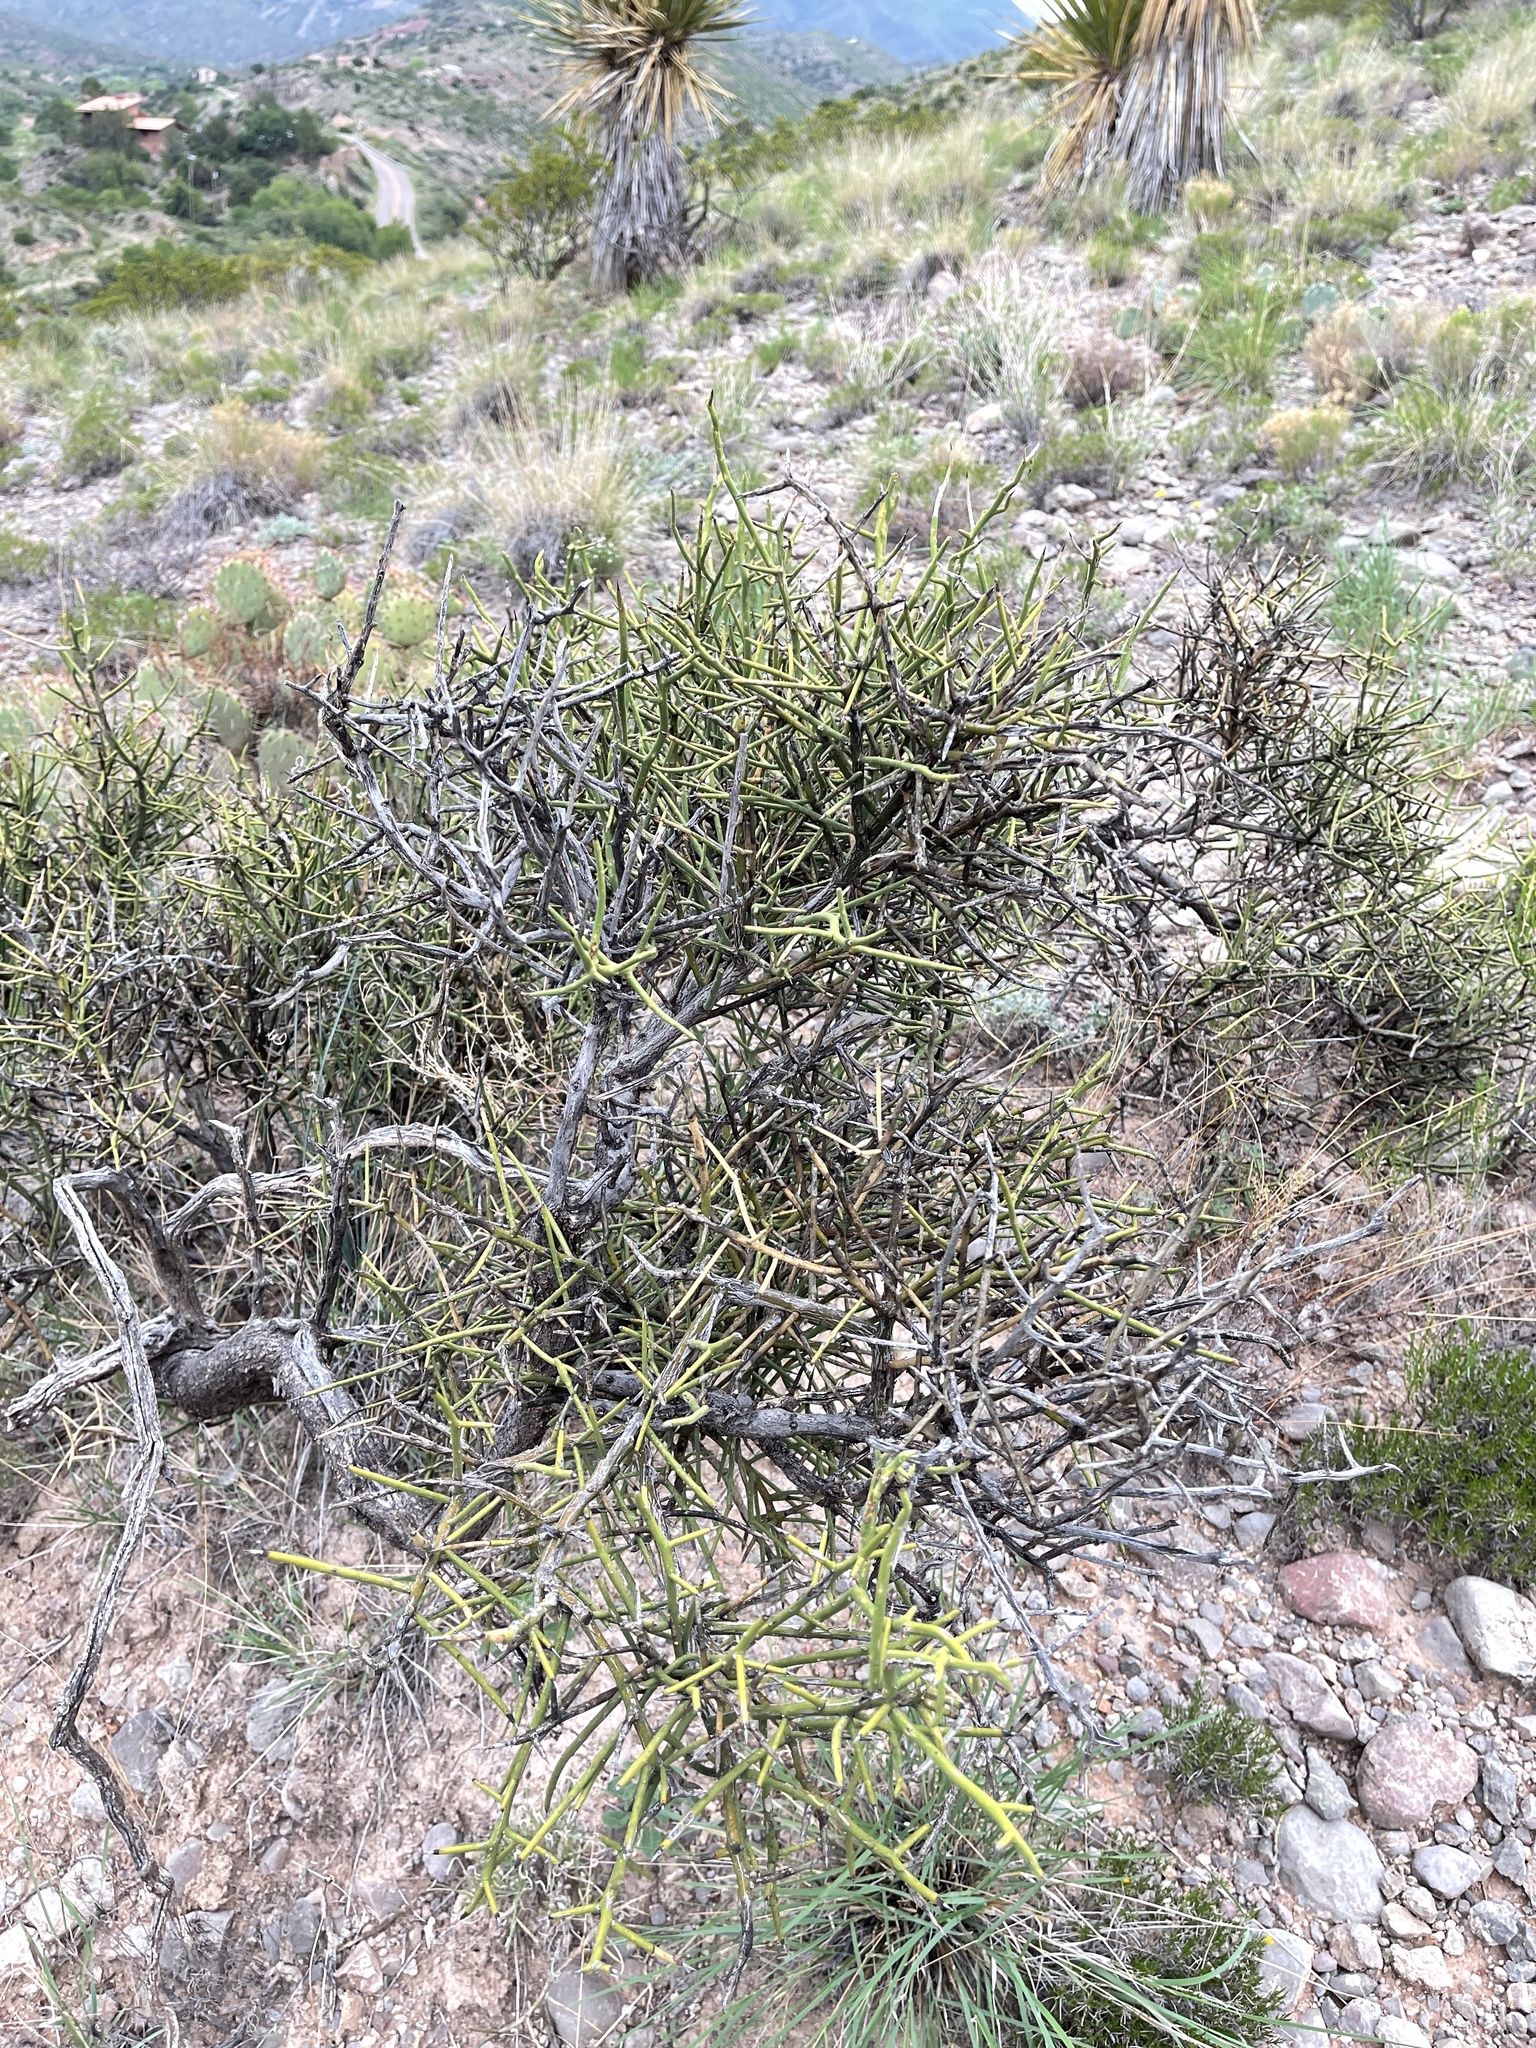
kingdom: Plantae
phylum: Tracheophyta
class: Magnoliopsida
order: Brassicales
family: Koeberliniaceae
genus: Koeberlinia
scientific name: Koeberlinia spinosa
